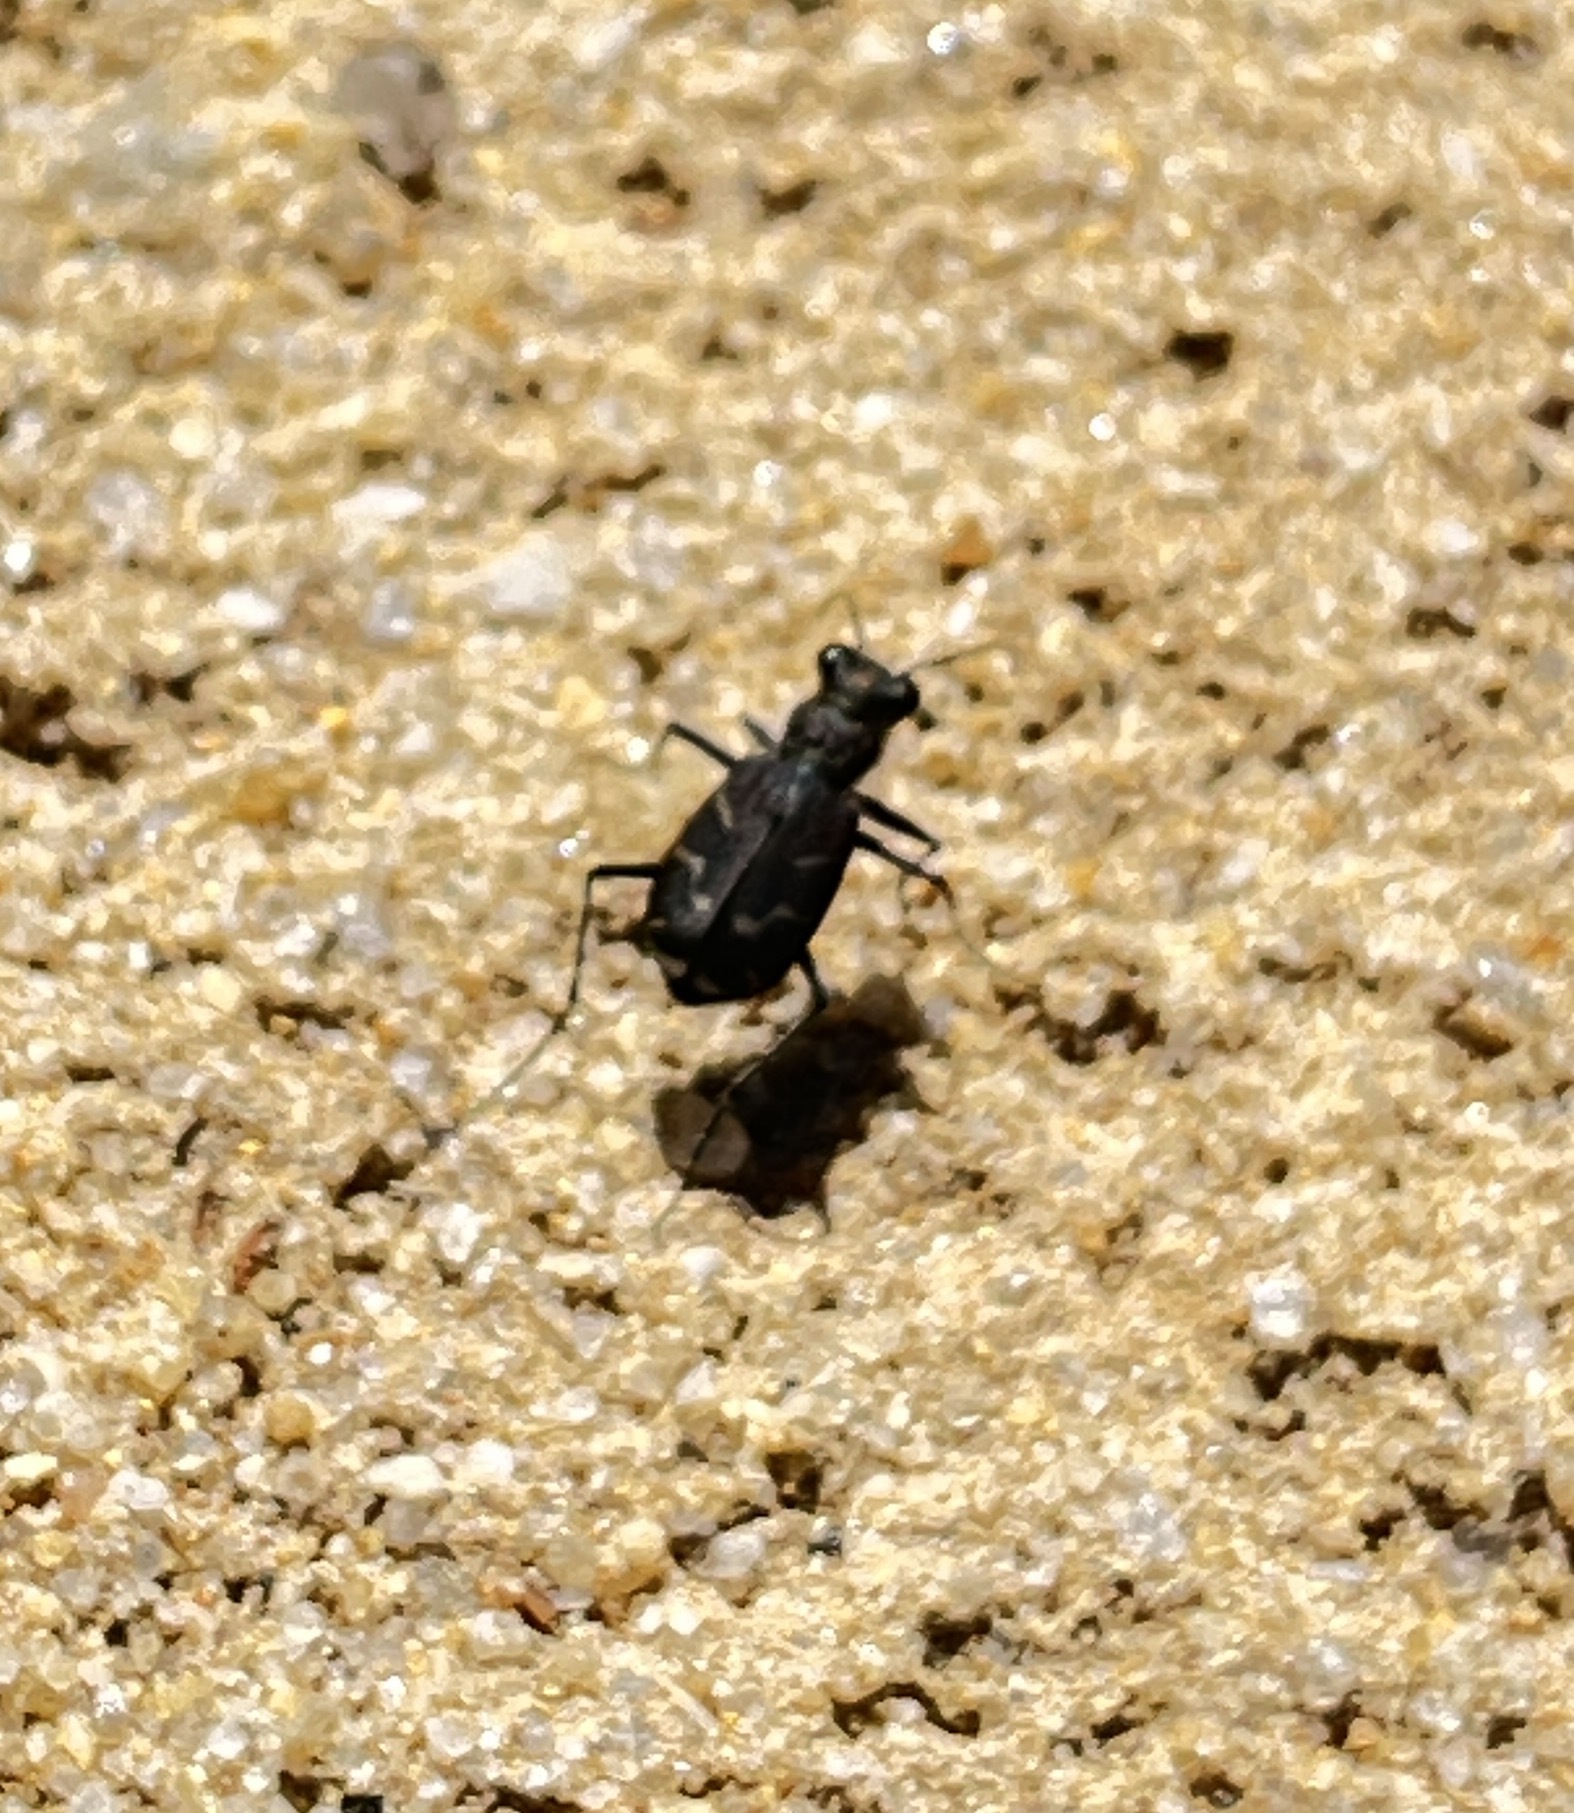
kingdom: Animalia
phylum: Arthropoda
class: Insecta
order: Coleoptera
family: Carabidae
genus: Cicindela
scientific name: Cicindela tranquebarica
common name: Oblique-lined tiger beetle
